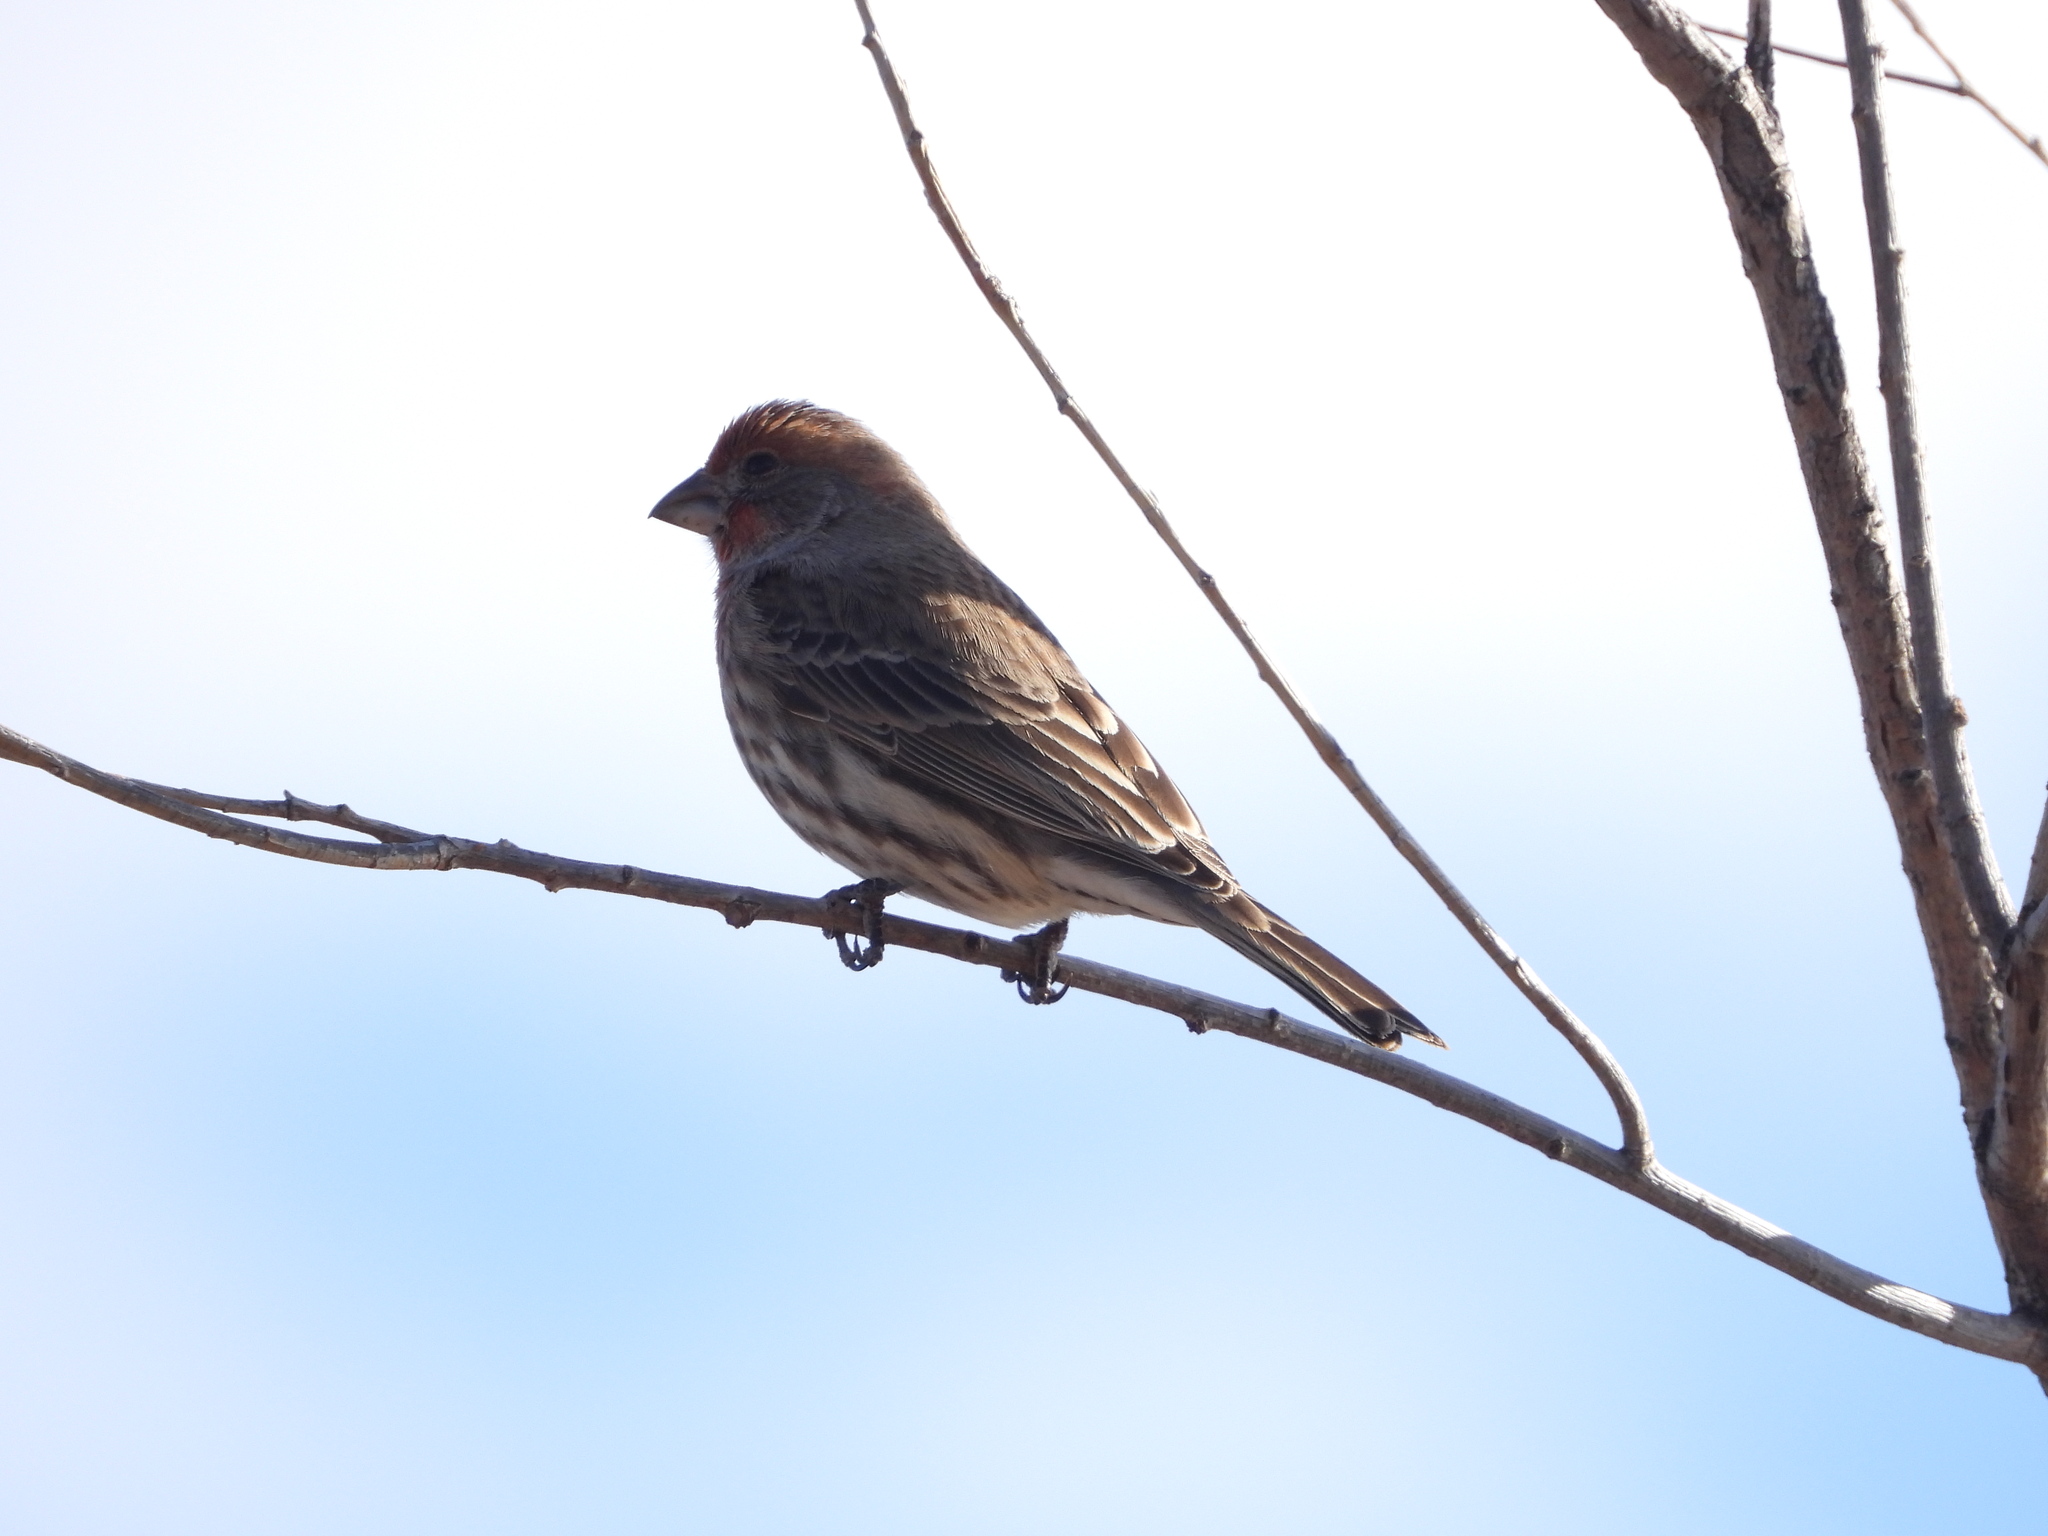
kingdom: Animalia
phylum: Chordata
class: Aves
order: Passeriformes
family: Fringillidae
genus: Haemorhous
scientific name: Haemorhous mexicanus
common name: House finch
